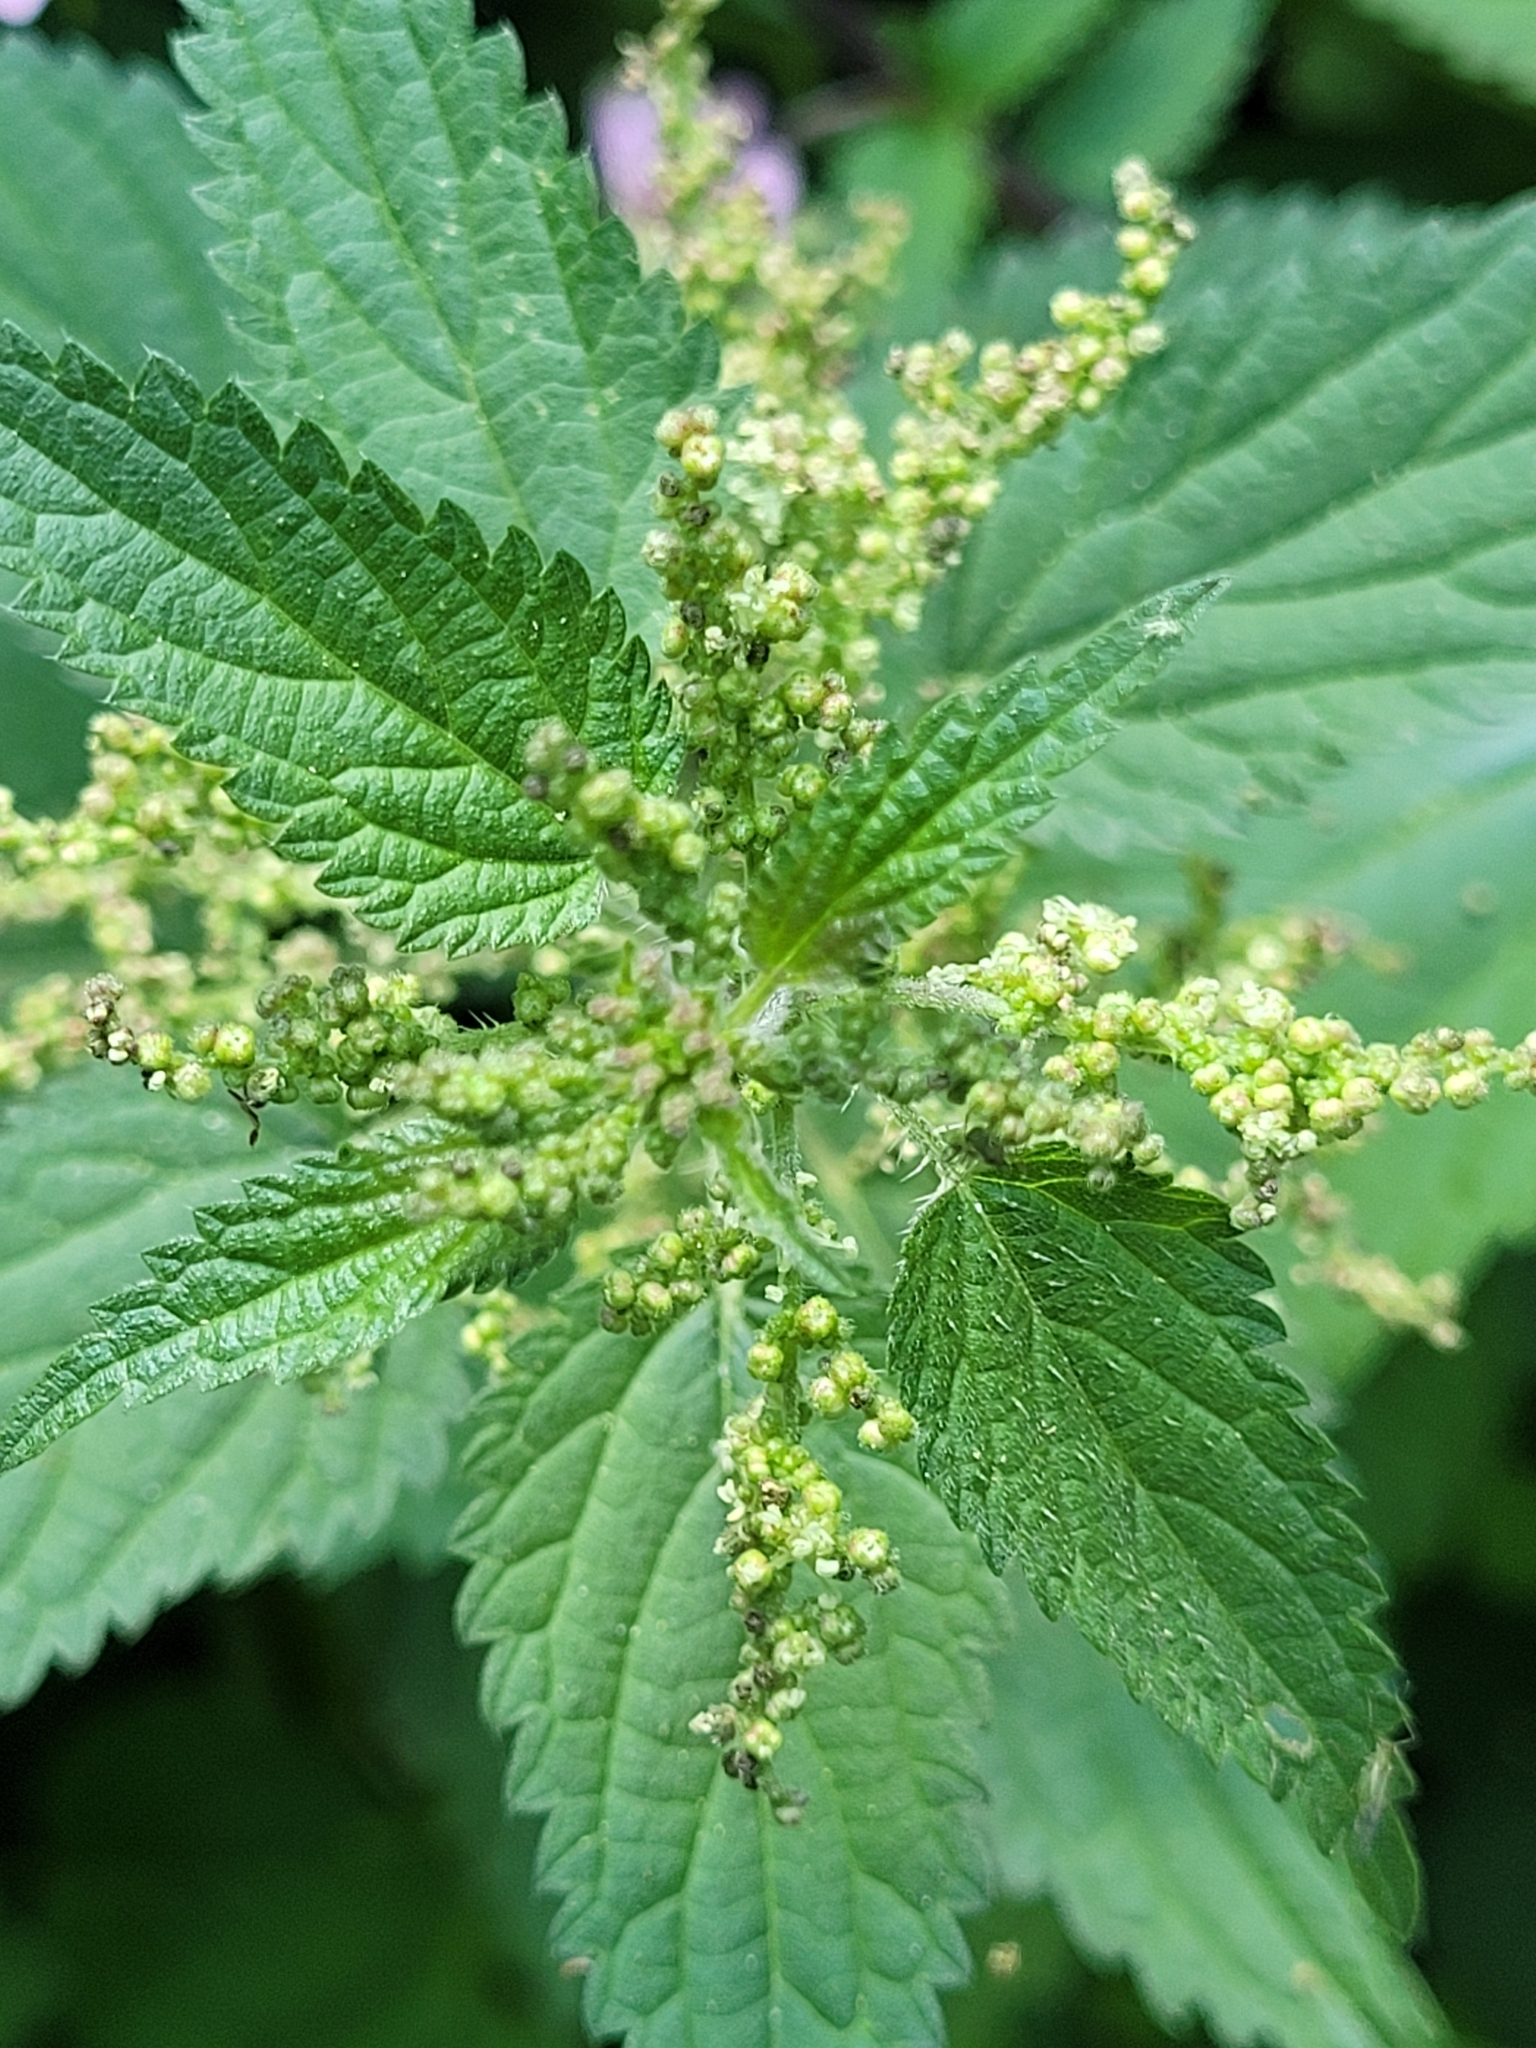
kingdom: Plantae
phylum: Tracheophyta
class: Magnoliopsida
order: Rosales
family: Urticaceae
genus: Urtica
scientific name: Urtica dioica
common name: Common nettle
